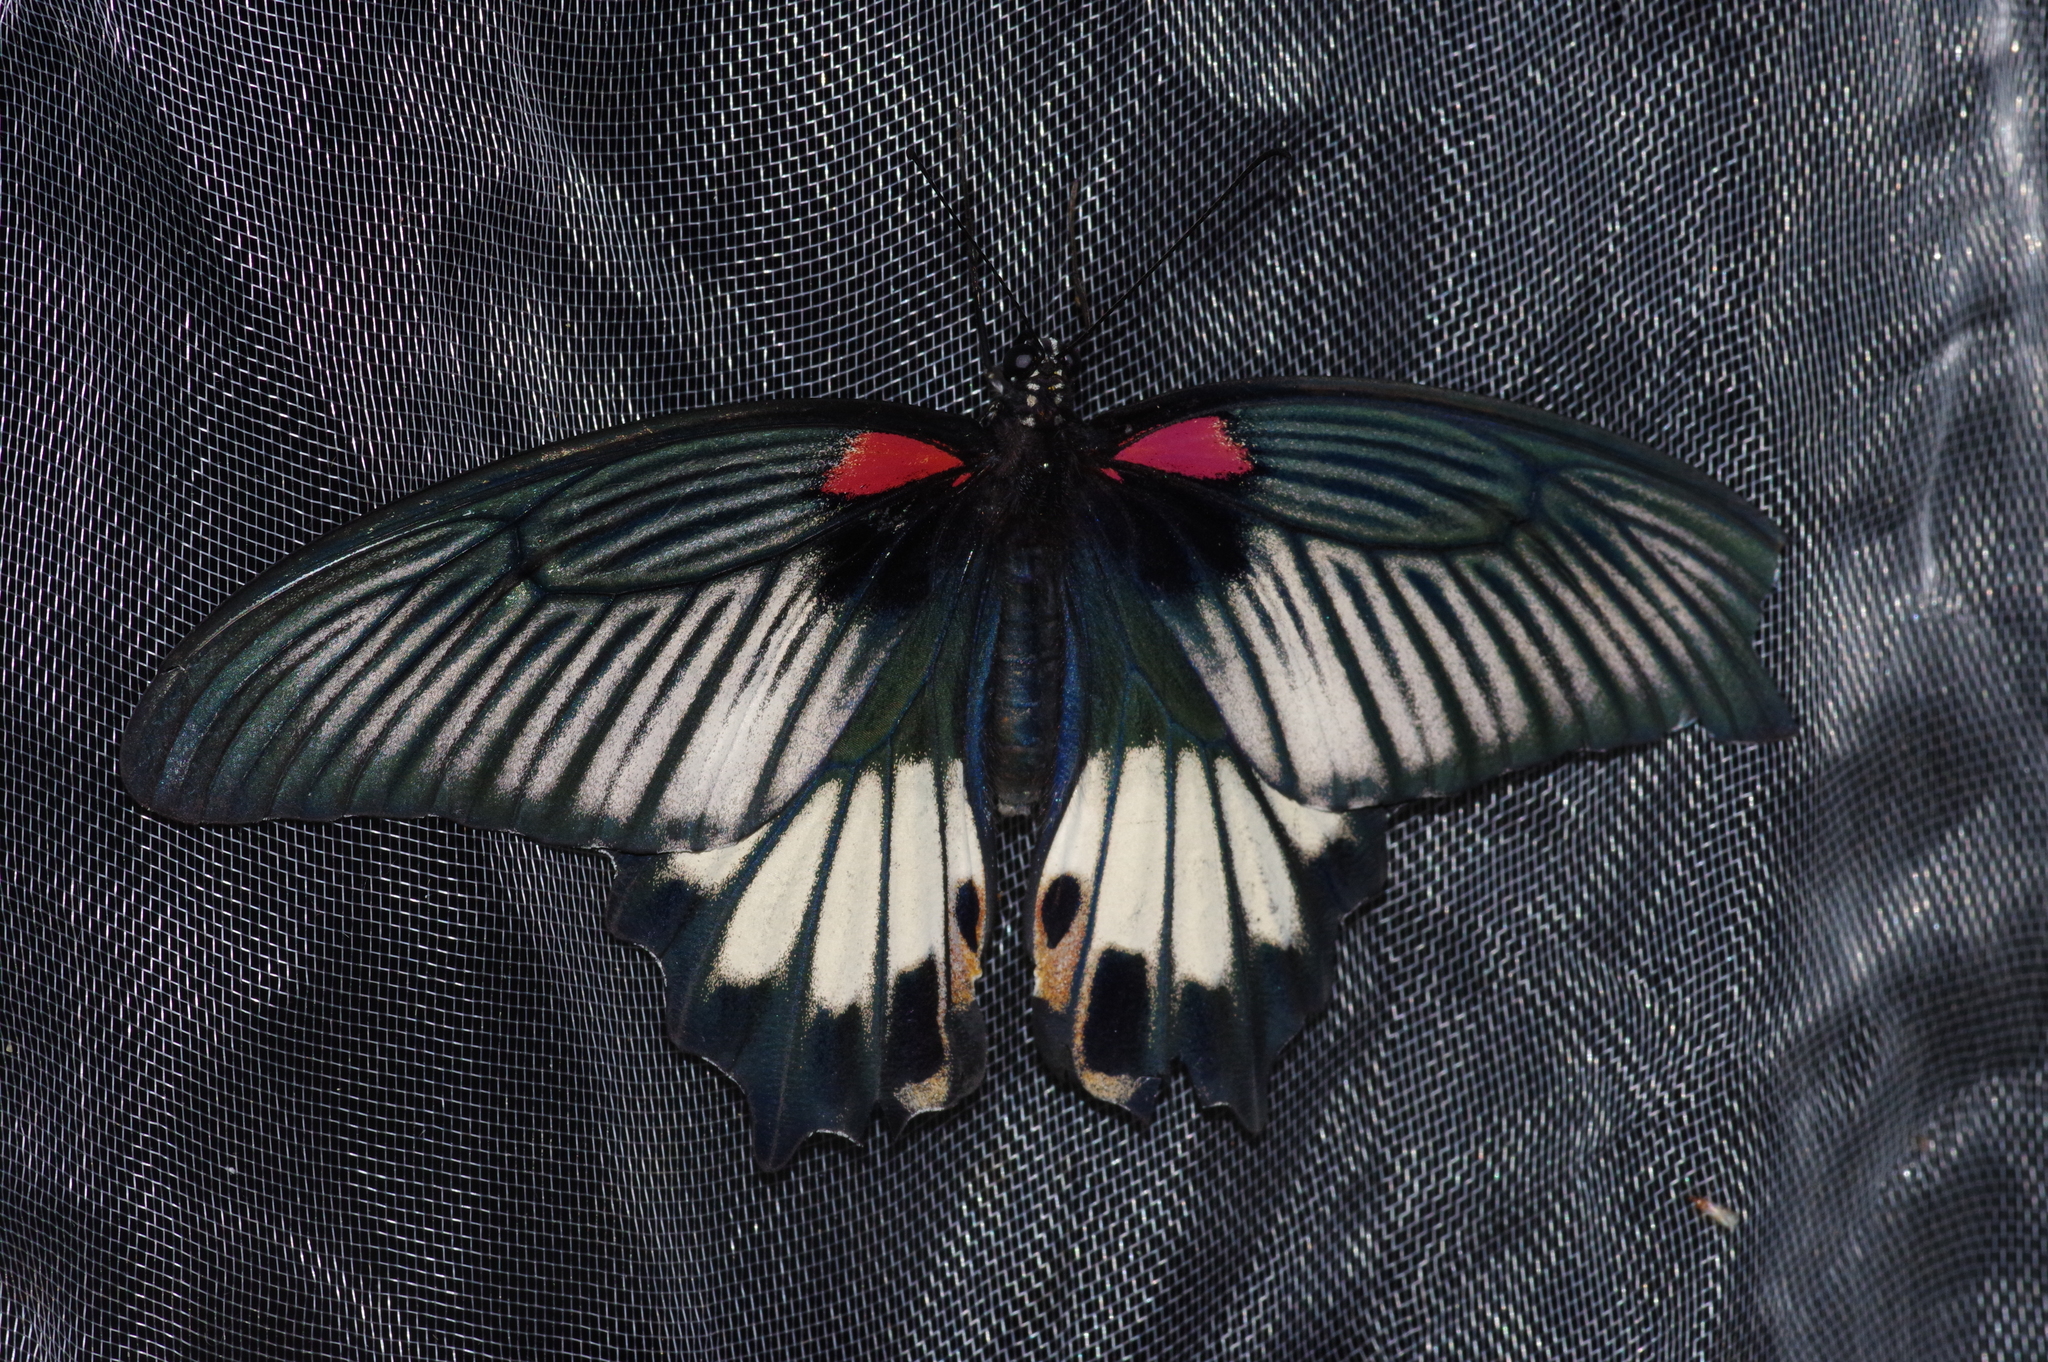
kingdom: Animalia
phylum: Arthropoda
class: Insecta
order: Lepidoptera
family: Papilionidae
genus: Papilio
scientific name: Papilio memnon
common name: Great mormon
